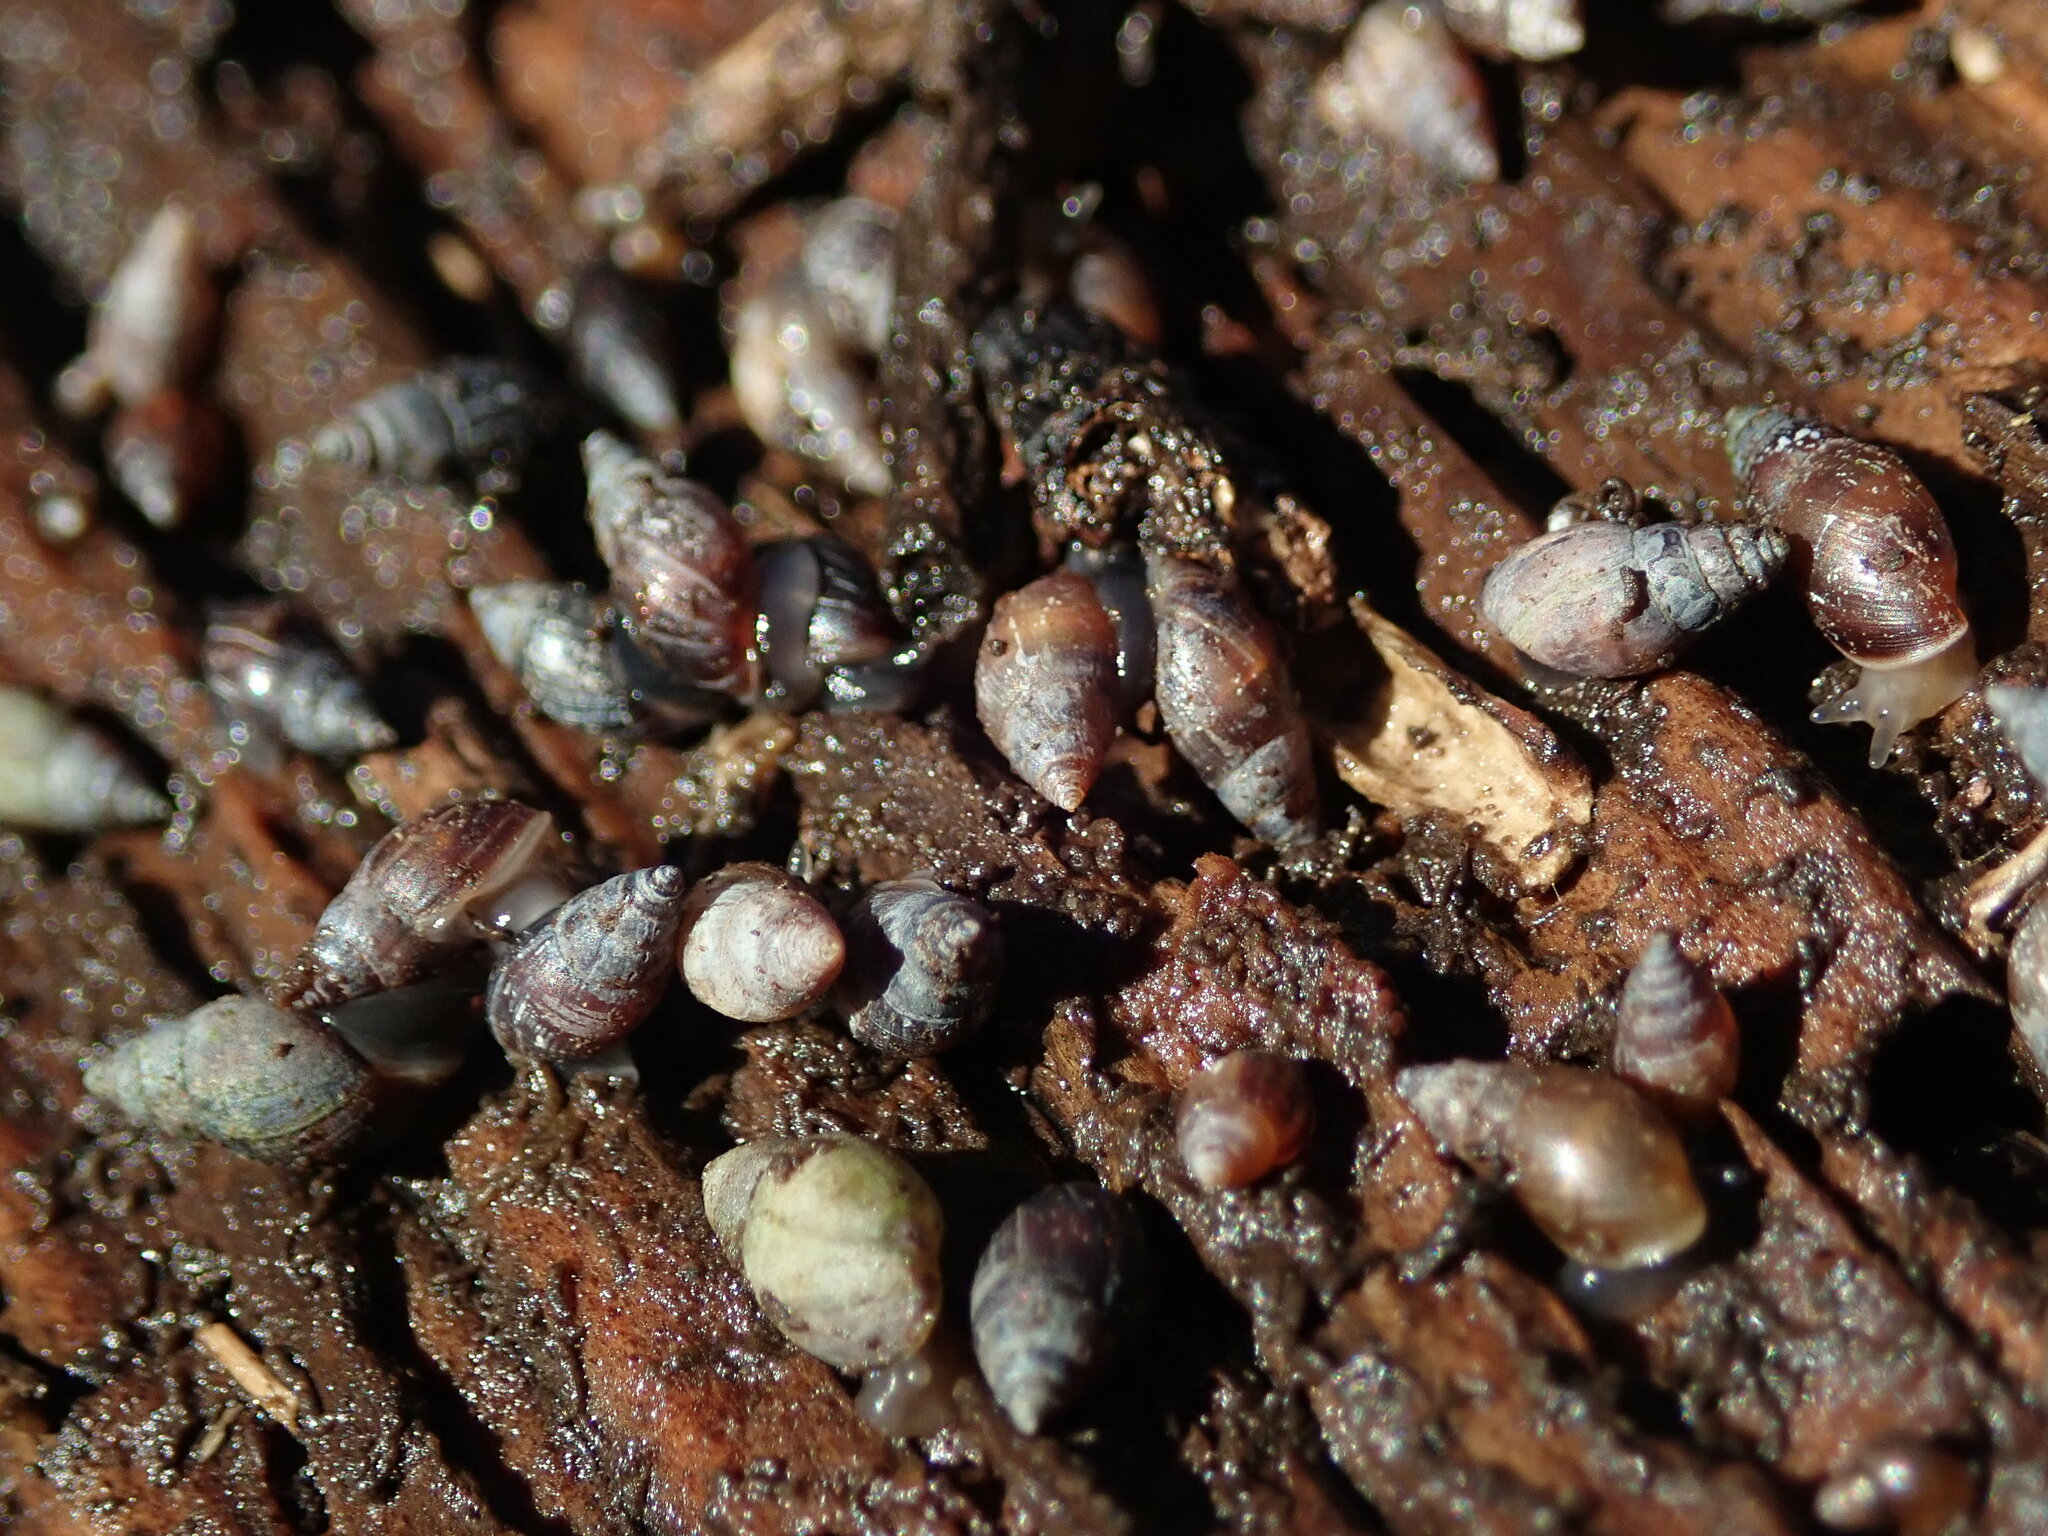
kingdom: Animalia
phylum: Mollusca
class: Gastropoda
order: Ellobiida
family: Ellobiidae
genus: Myosotella
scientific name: Myosotella myosotis
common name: Mouse-eared snail
